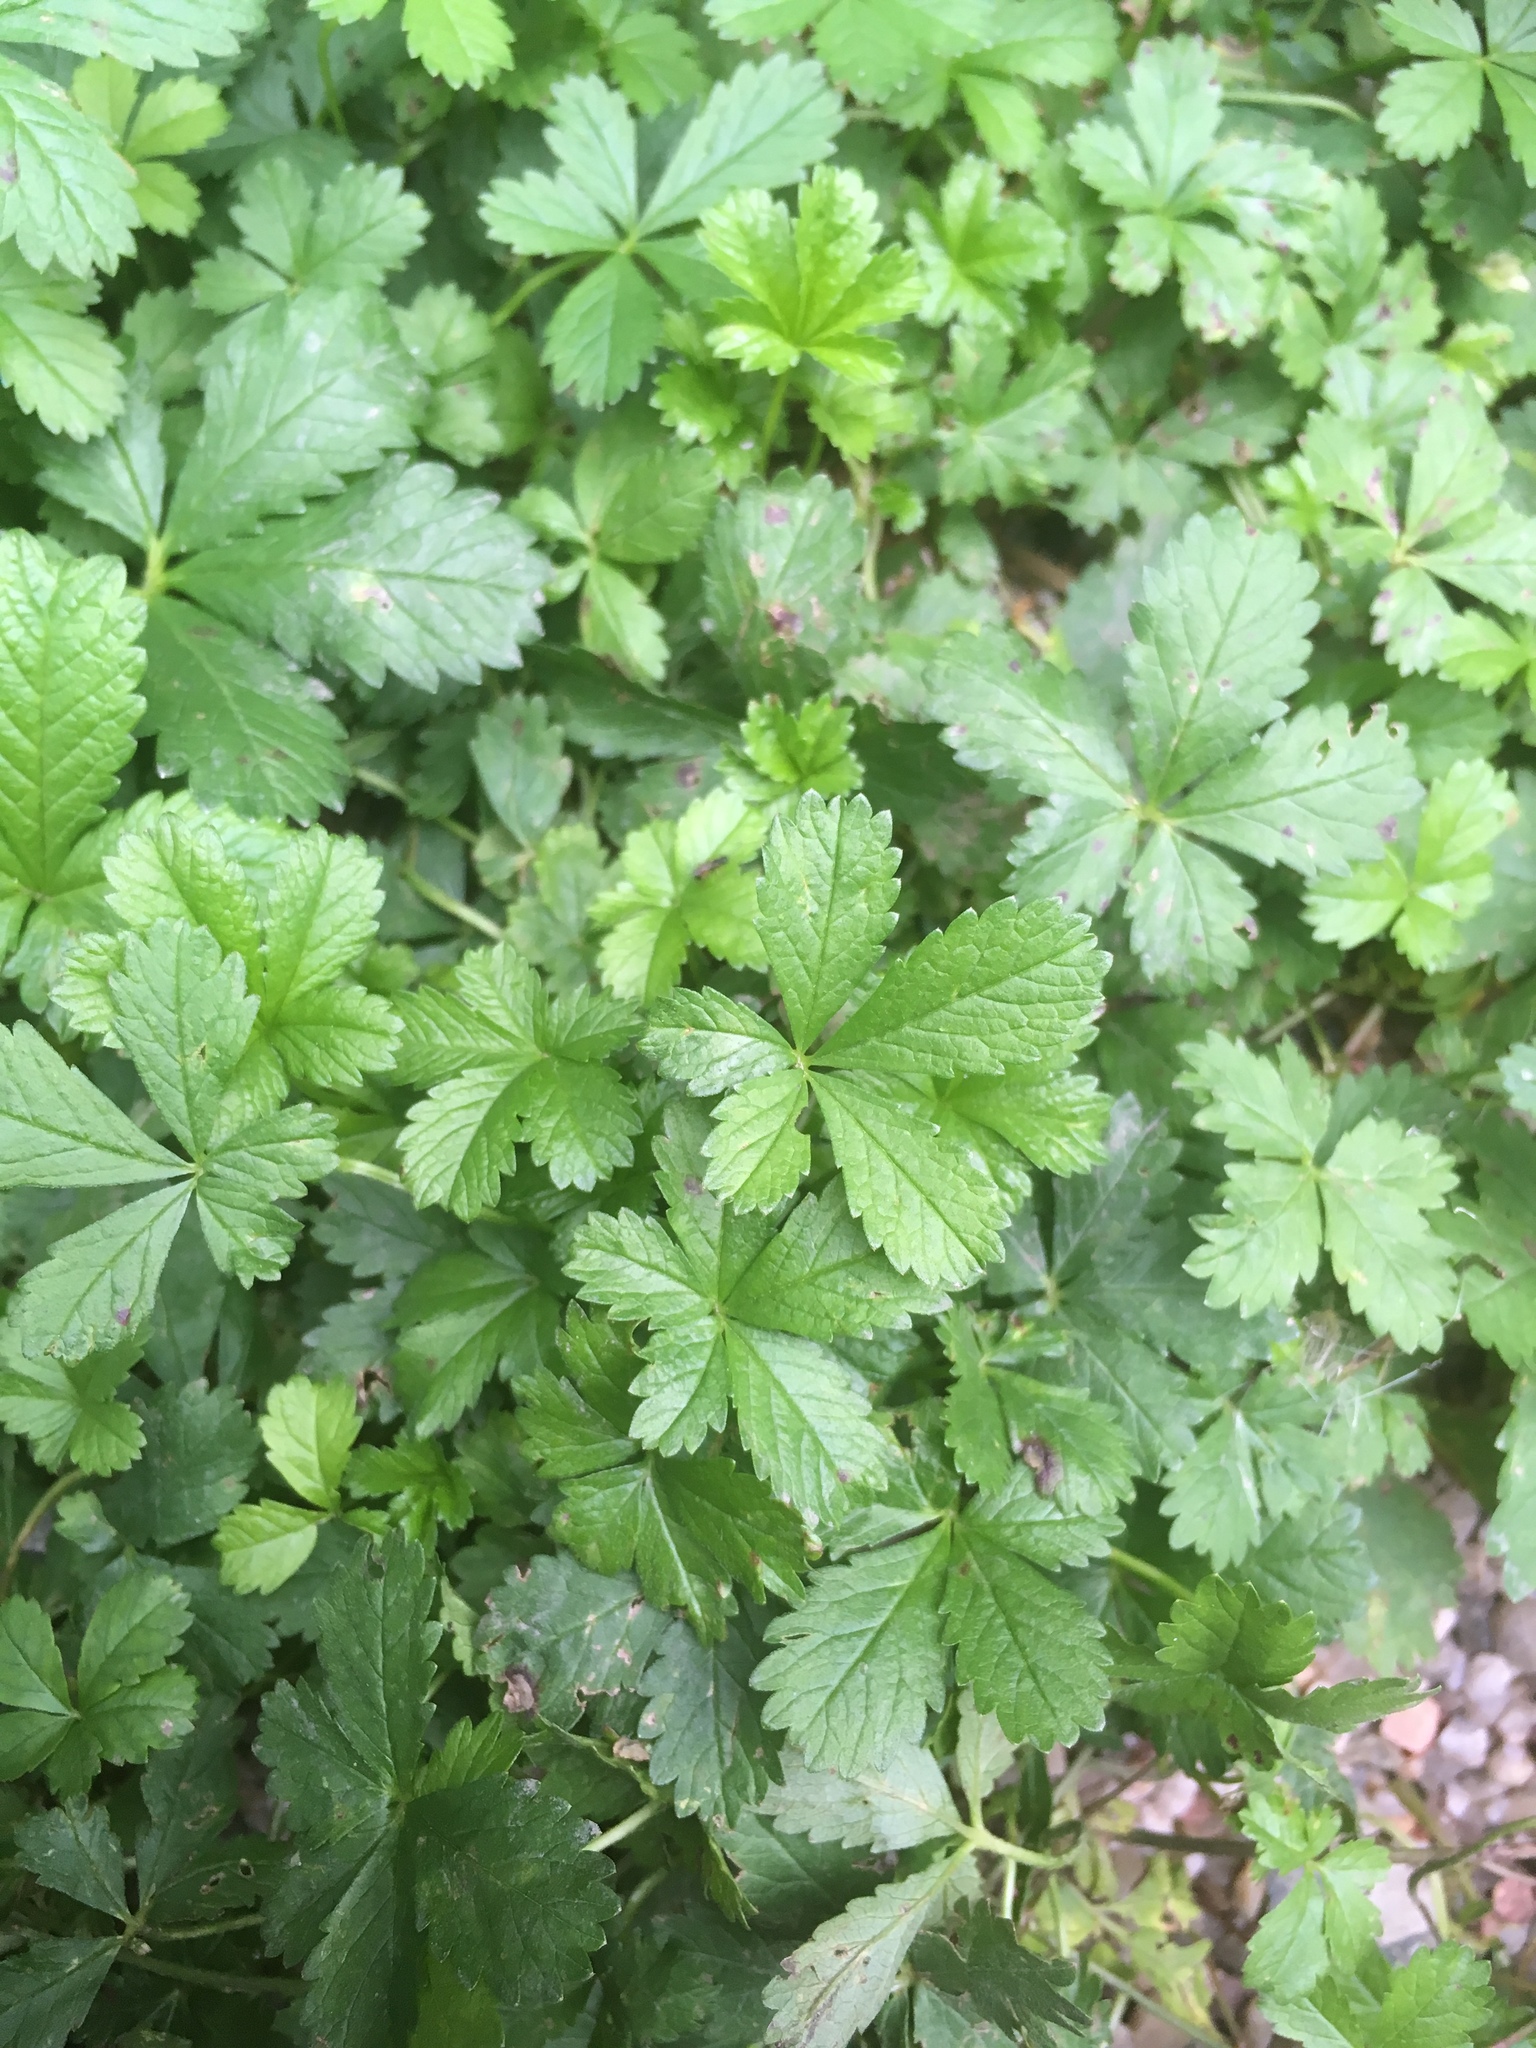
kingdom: Plantae
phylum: Tracheophyta
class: Magnoliopsida
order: Rosales
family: Rosaceae
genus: Potentilla
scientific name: Potentilla reptans
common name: Creeping cinquefoil
